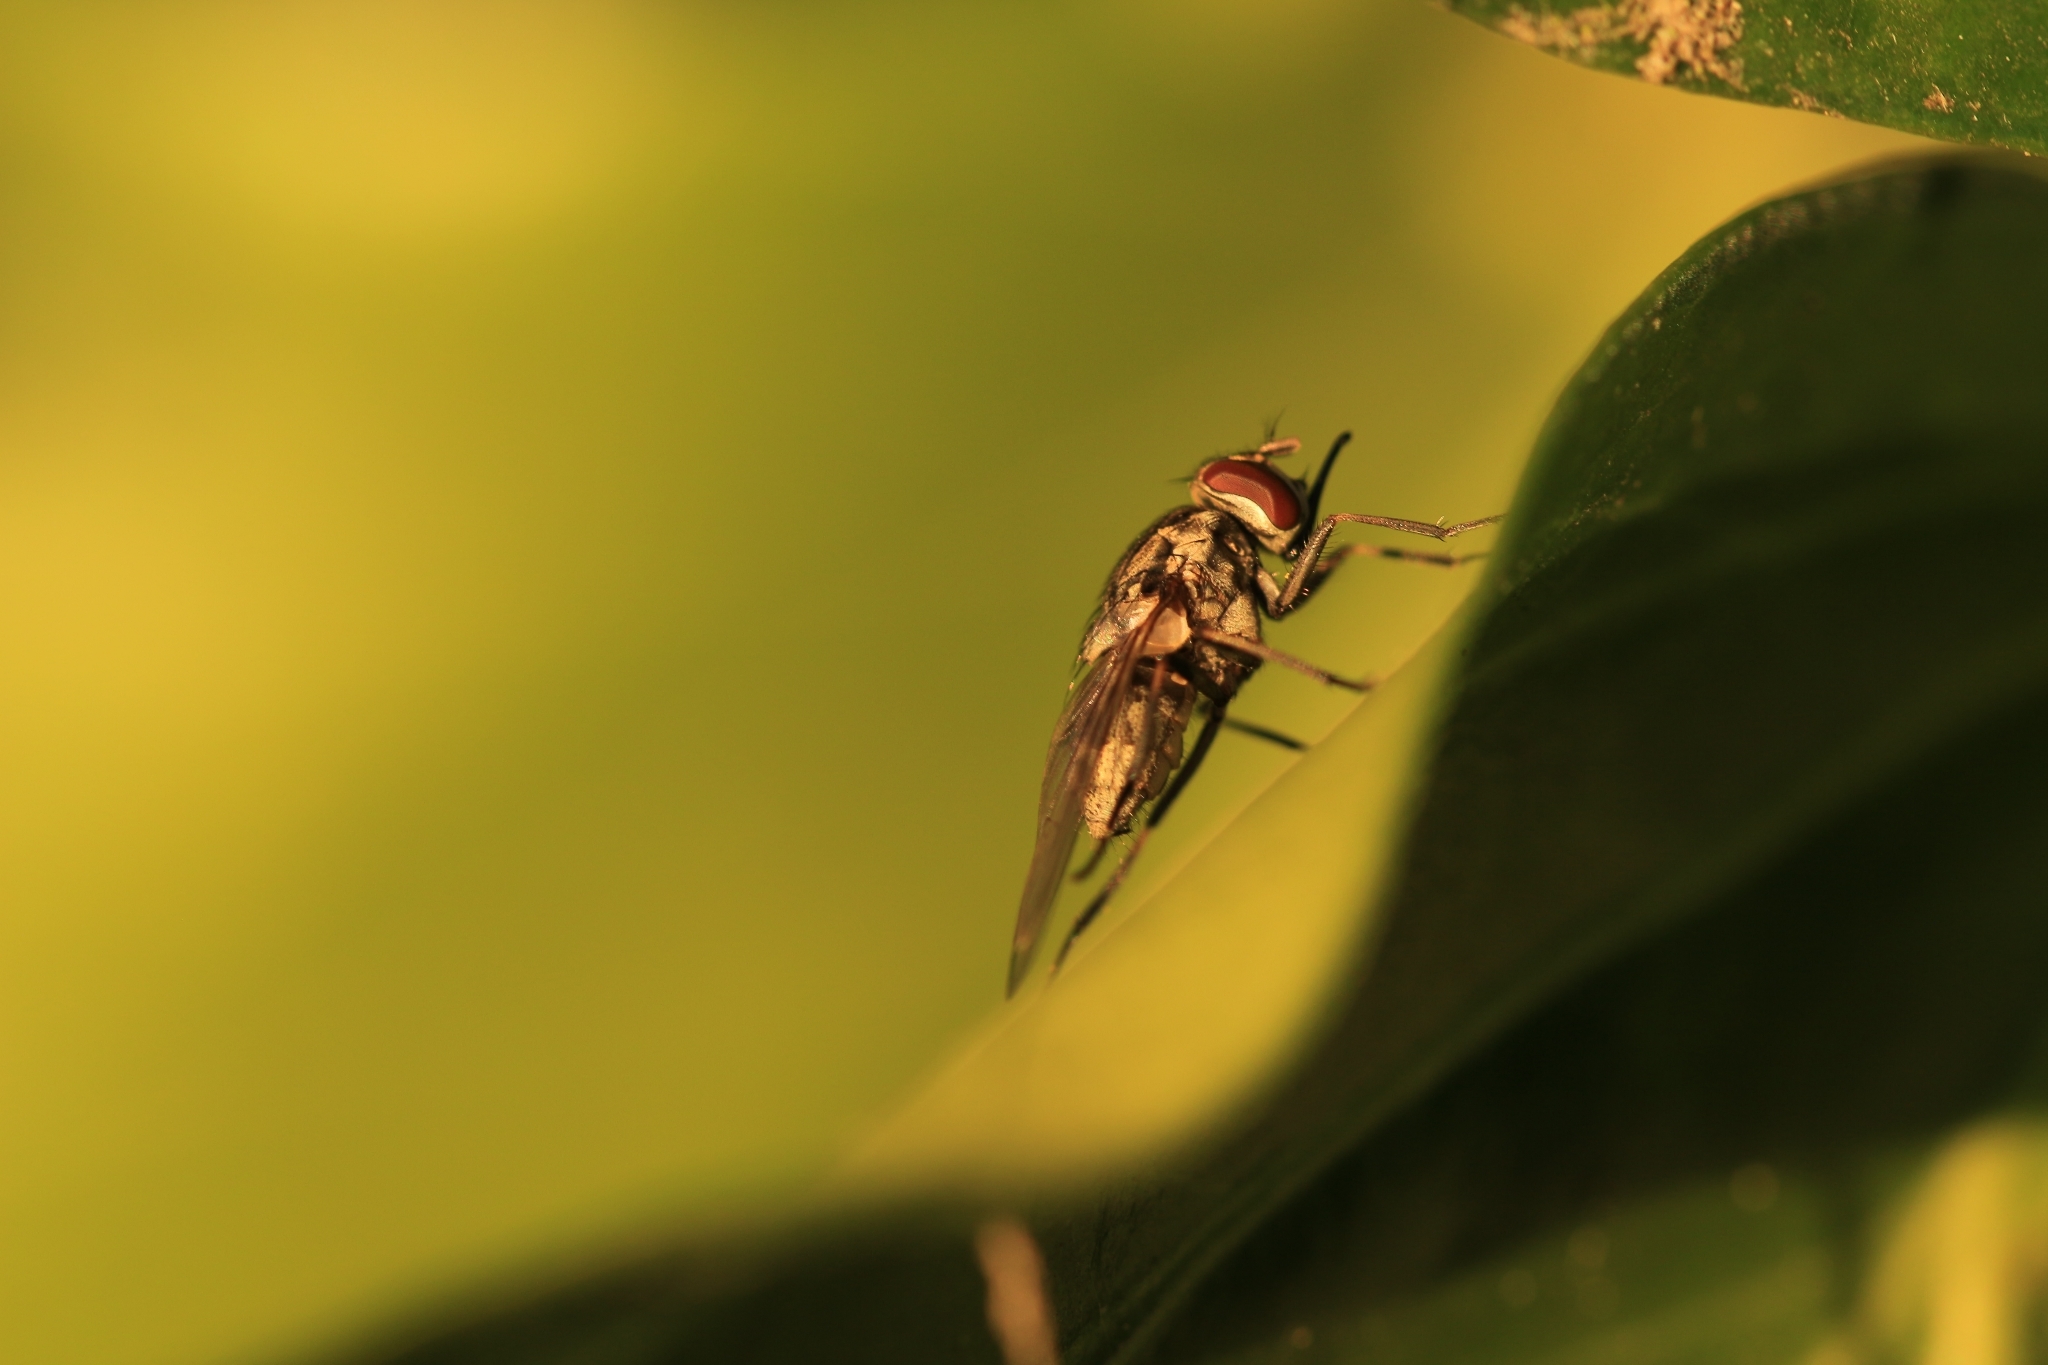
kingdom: Animalia
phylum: Arthropoda
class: Insecta
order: Diptera
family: Muscidae
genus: Stomoxys
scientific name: Stomoxys calcitrans
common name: Stable fly
